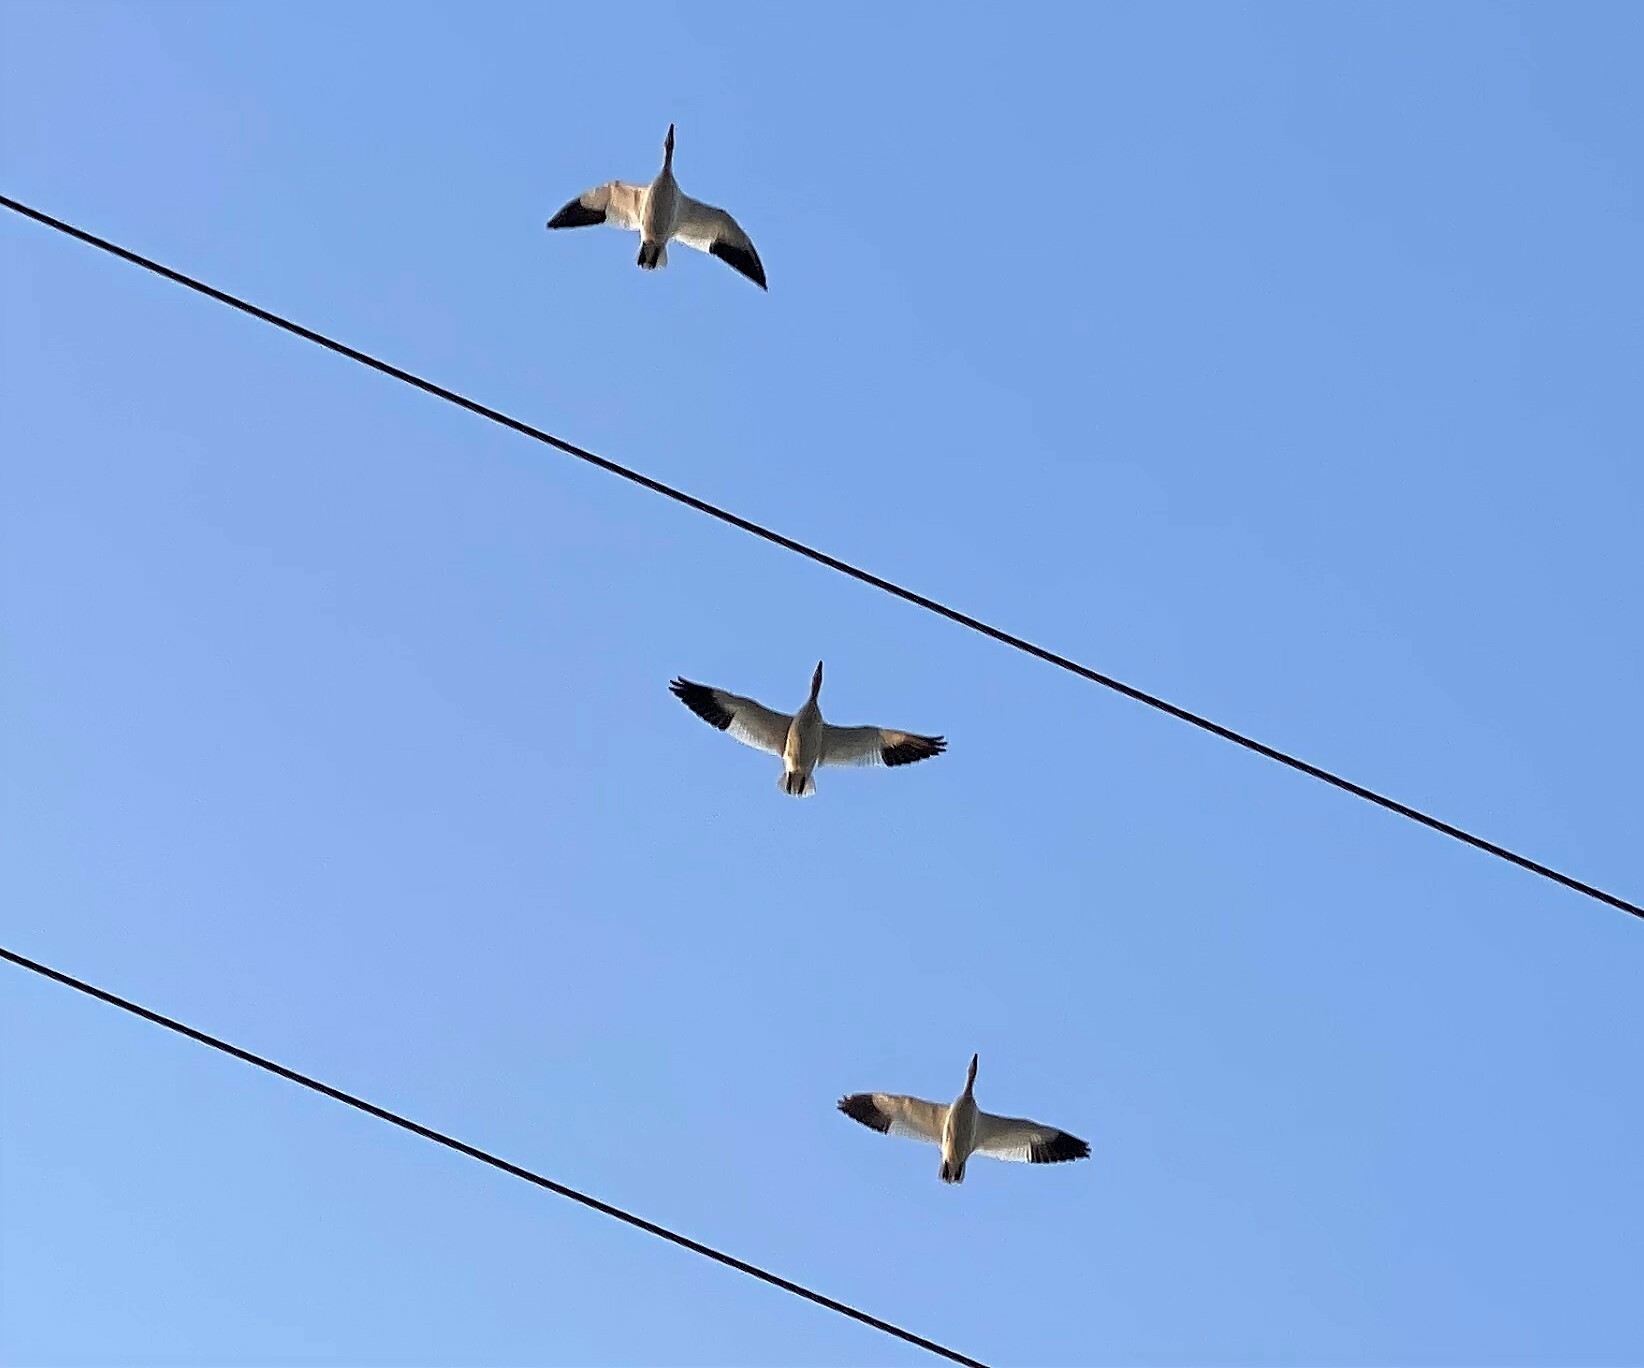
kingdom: Animalia
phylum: Chordata
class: Aves
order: Anseriformes
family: Anatidae
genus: Anser
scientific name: Anser caerulescens
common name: Snow goose
